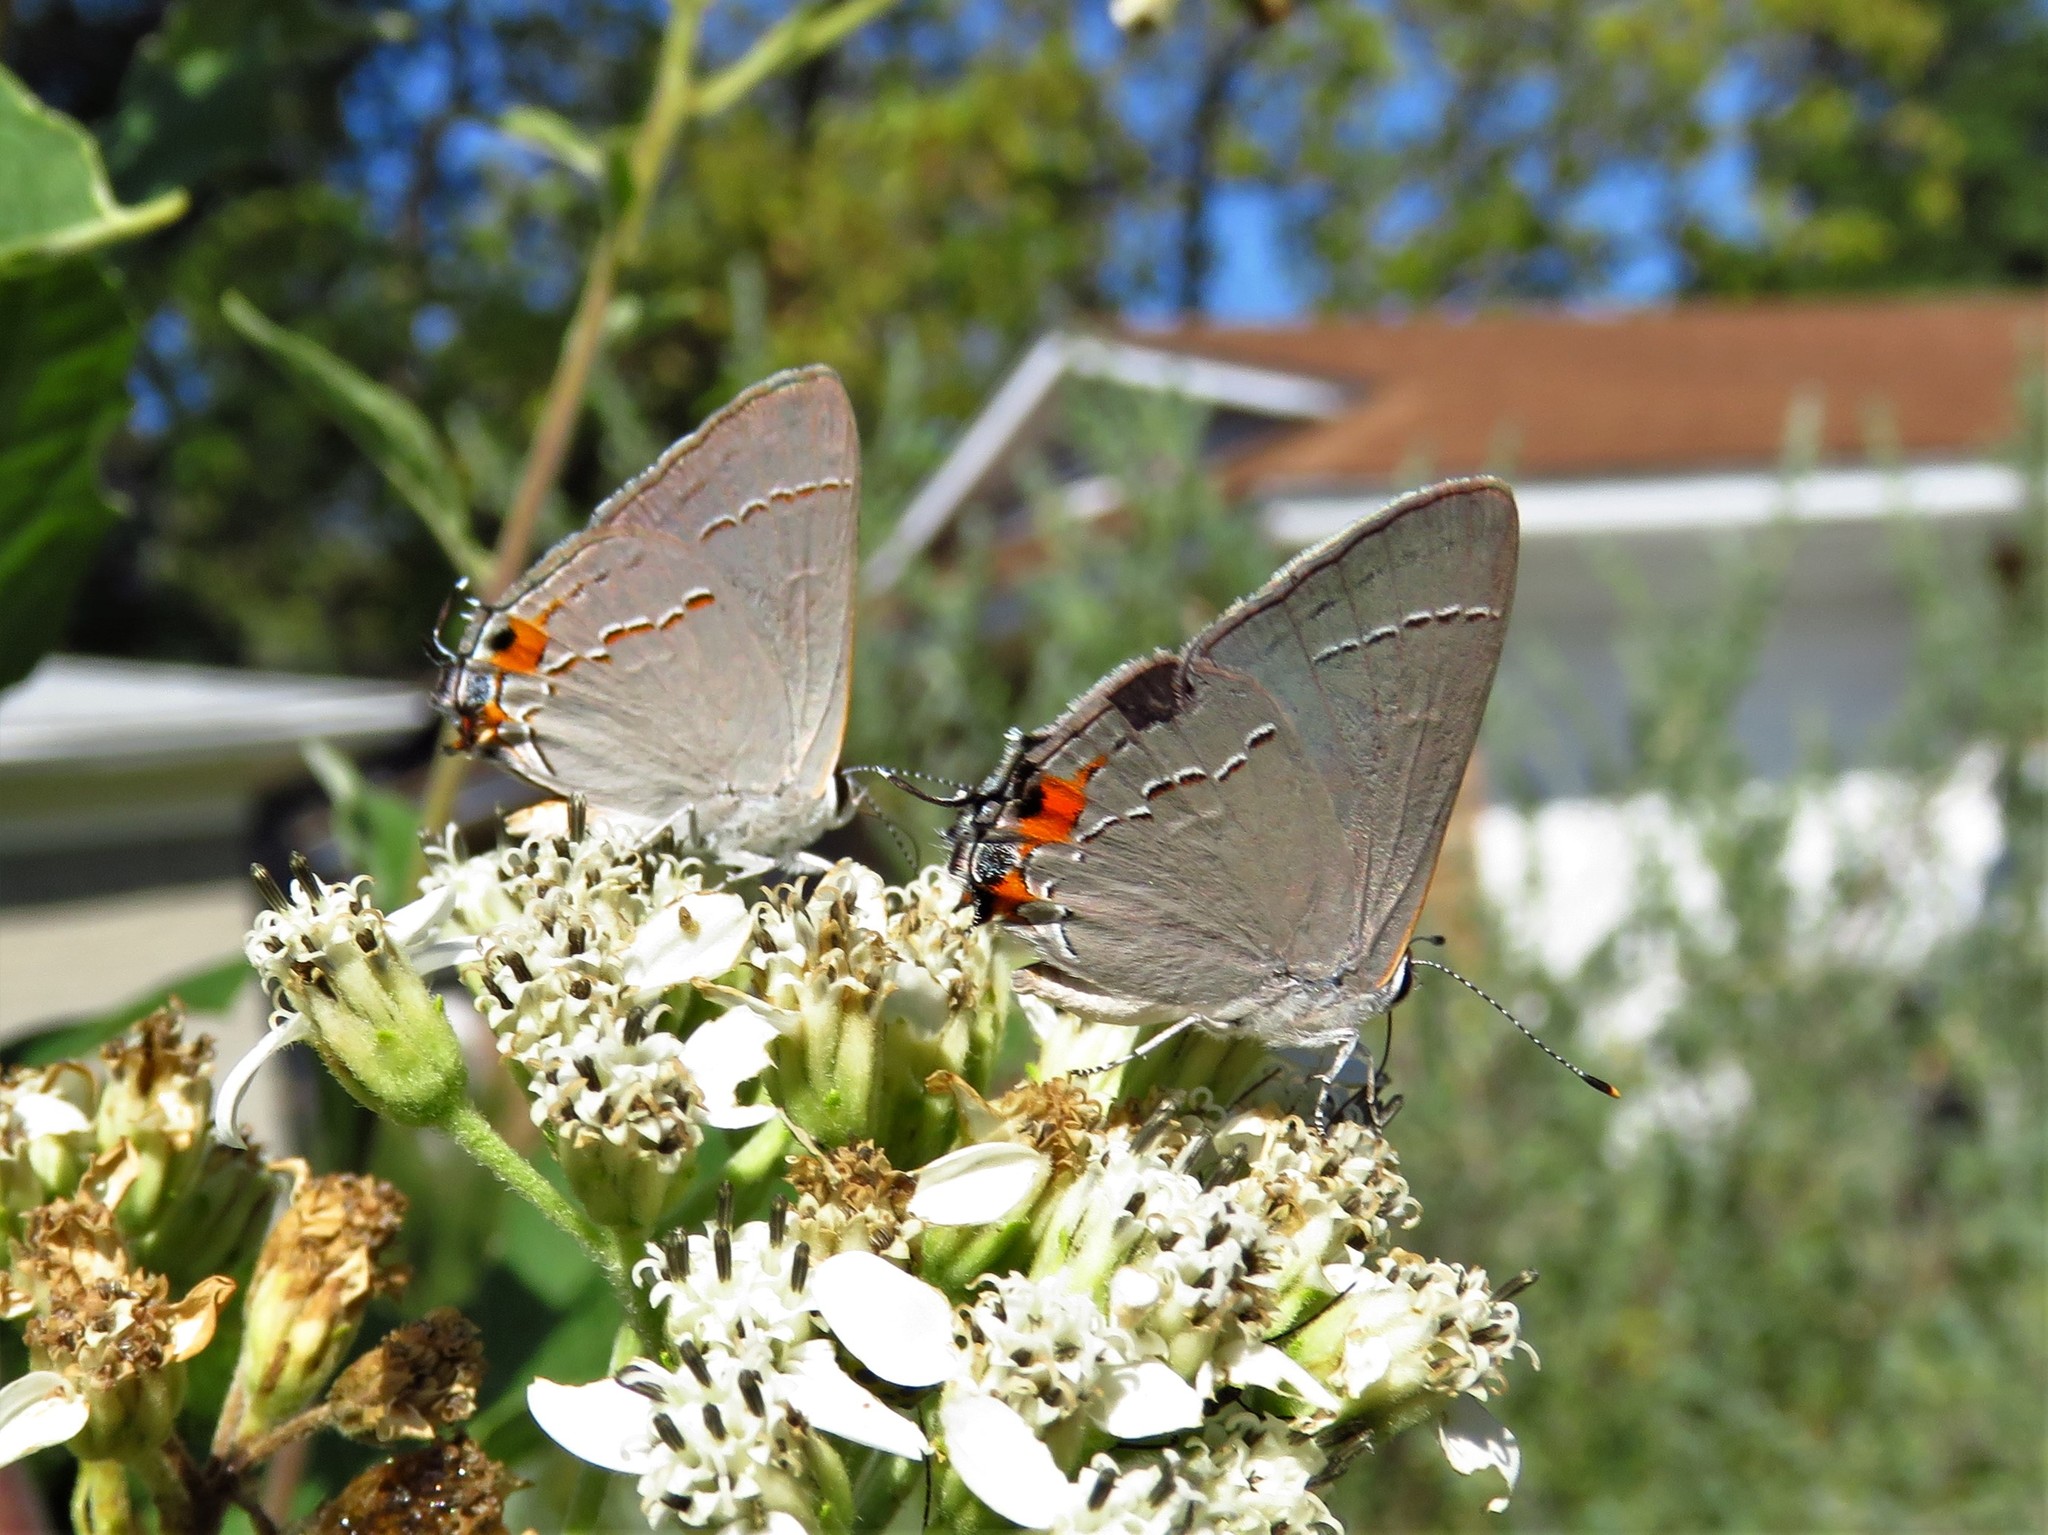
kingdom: Animalia
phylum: Arthropoda
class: Insecta
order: Lepidoptera
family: Lycaenidae
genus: Strymon
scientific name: Strymon melinus
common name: Gray hairstreak
